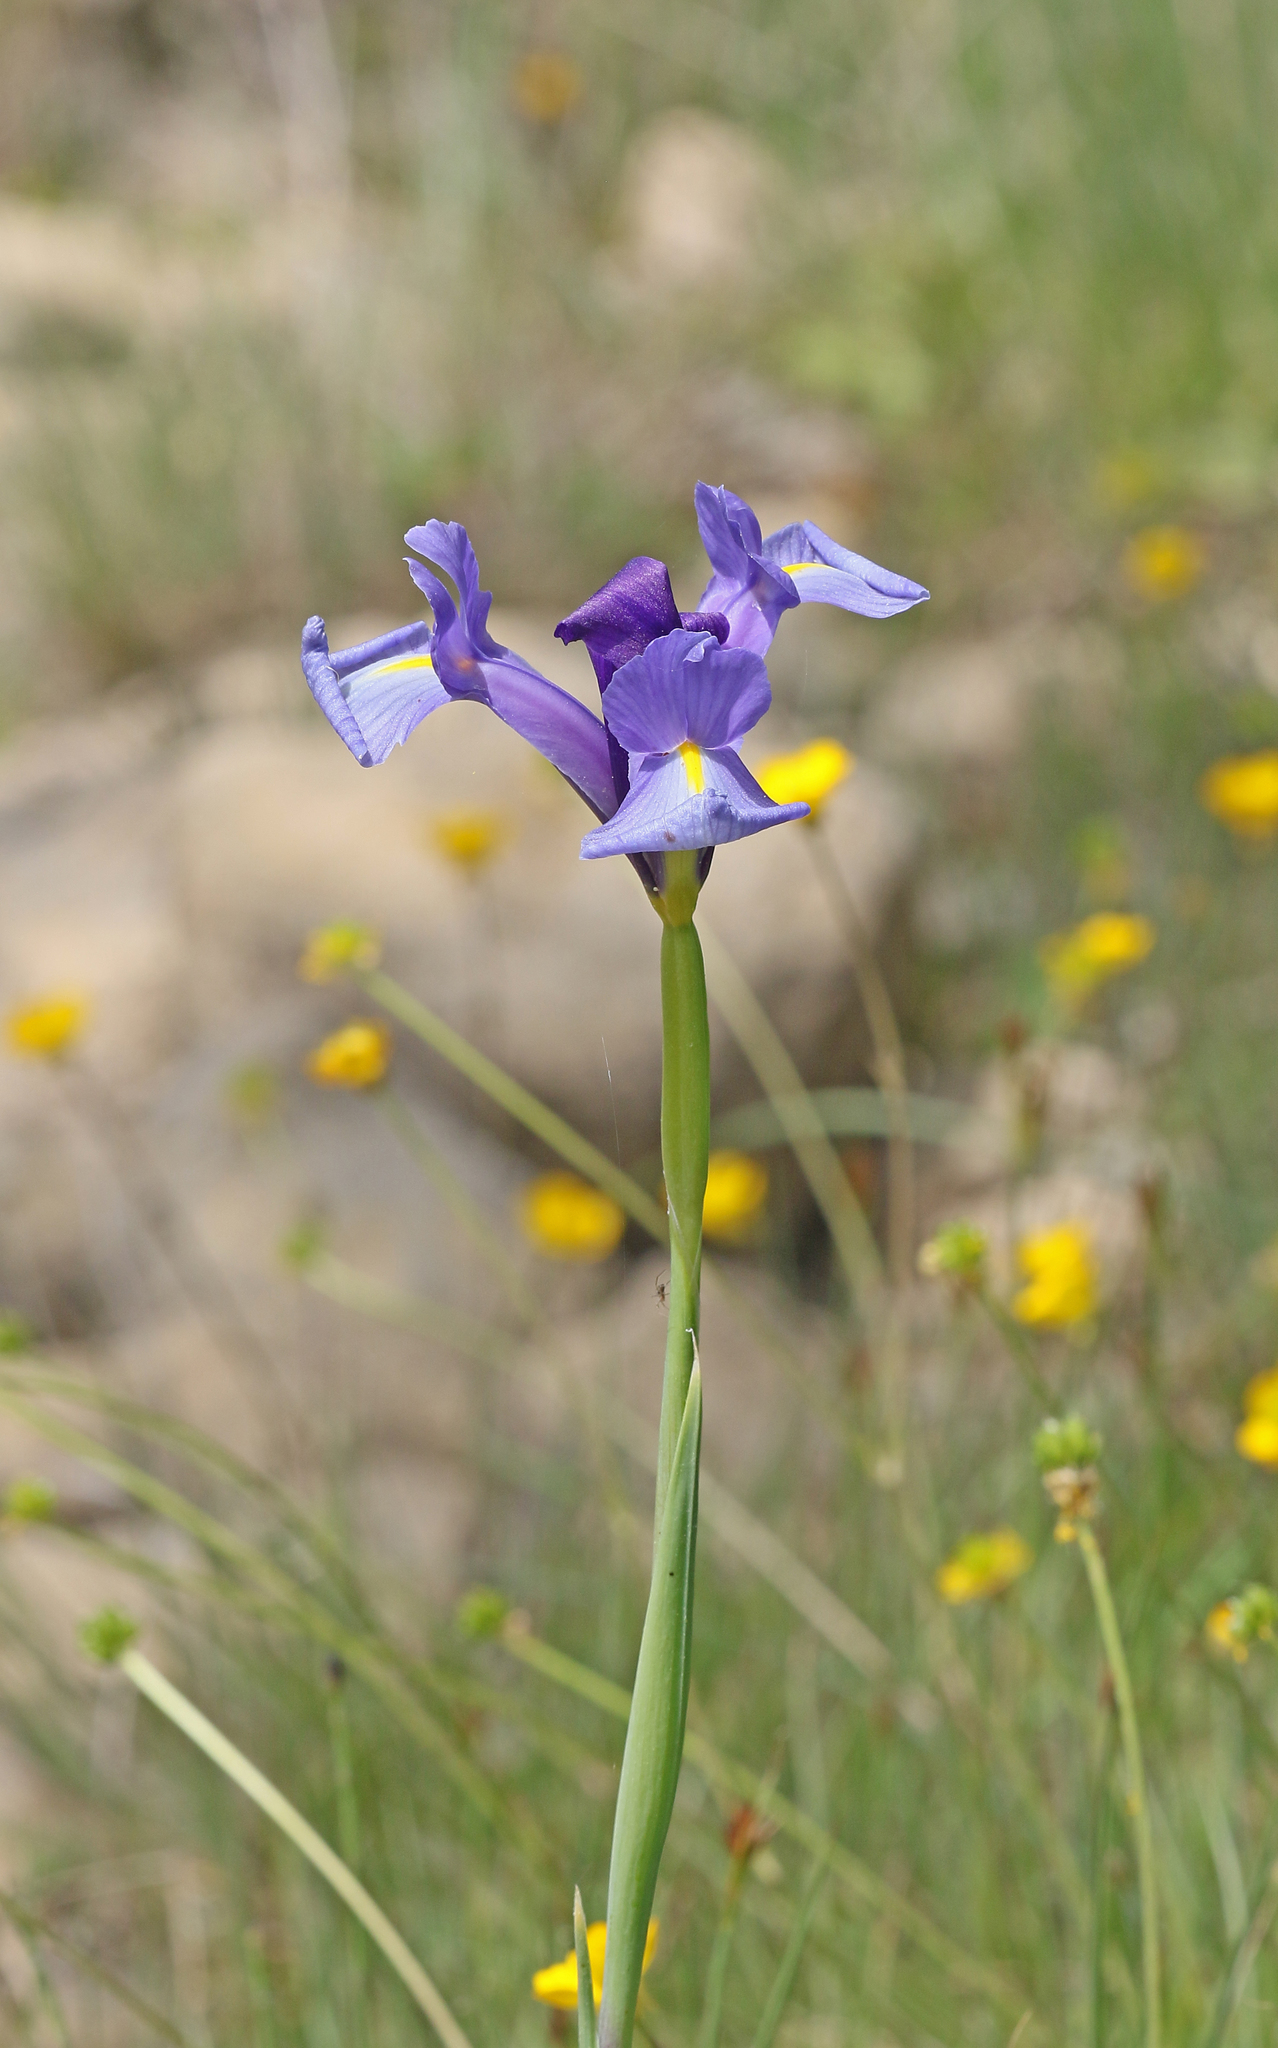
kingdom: Plantae
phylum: Tracheophyta
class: Liliopsida
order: Asparagales
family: Iridaceae
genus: Iris
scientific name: Iris xiphium
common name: Spanish iris
